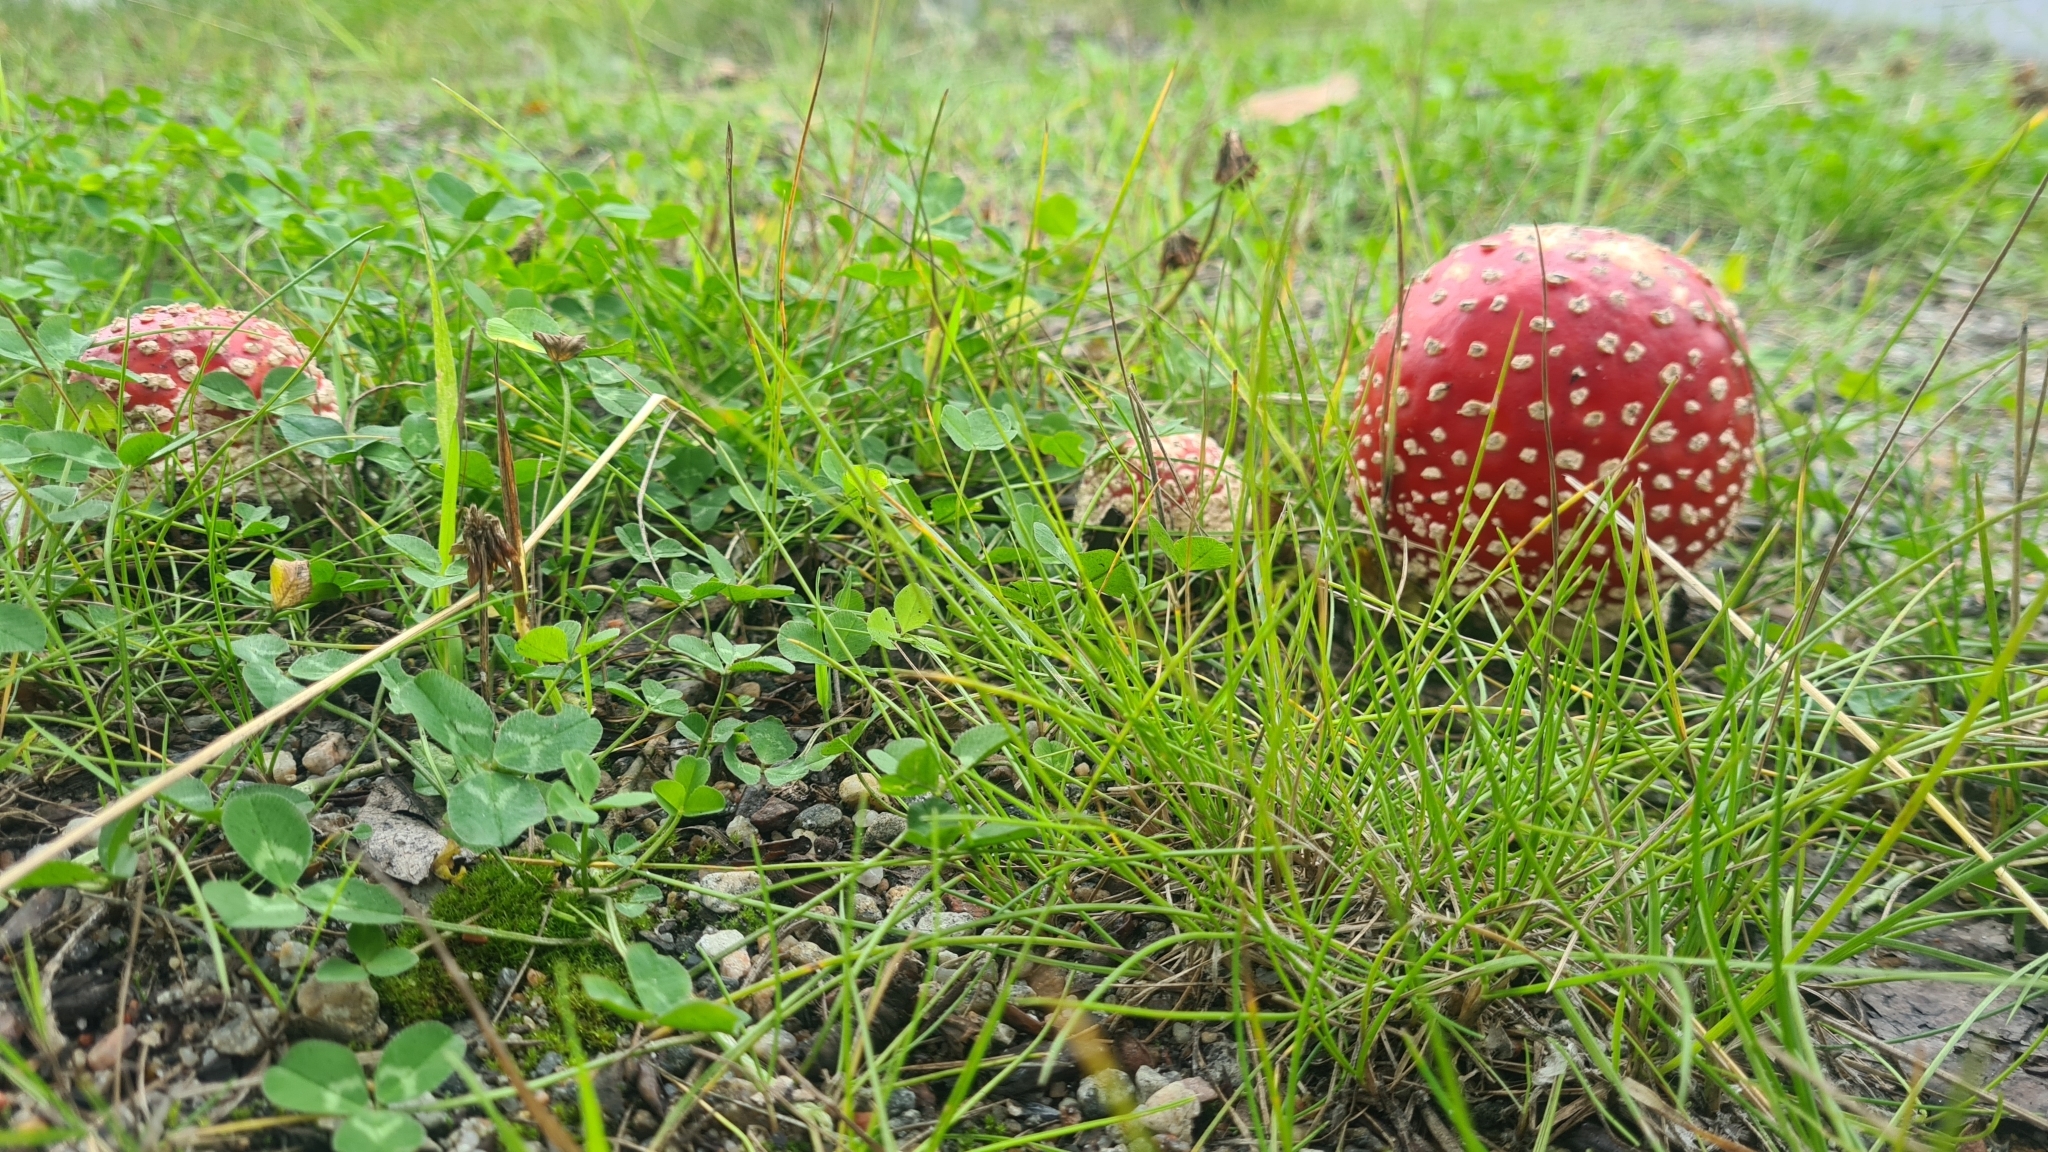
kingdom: Fungi
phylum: Basidiomycota
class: Agaricomycetes
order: Agaricales
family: Amanitaceae
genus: Amanita
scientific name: Amanita muscaria
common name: Fly agaric
